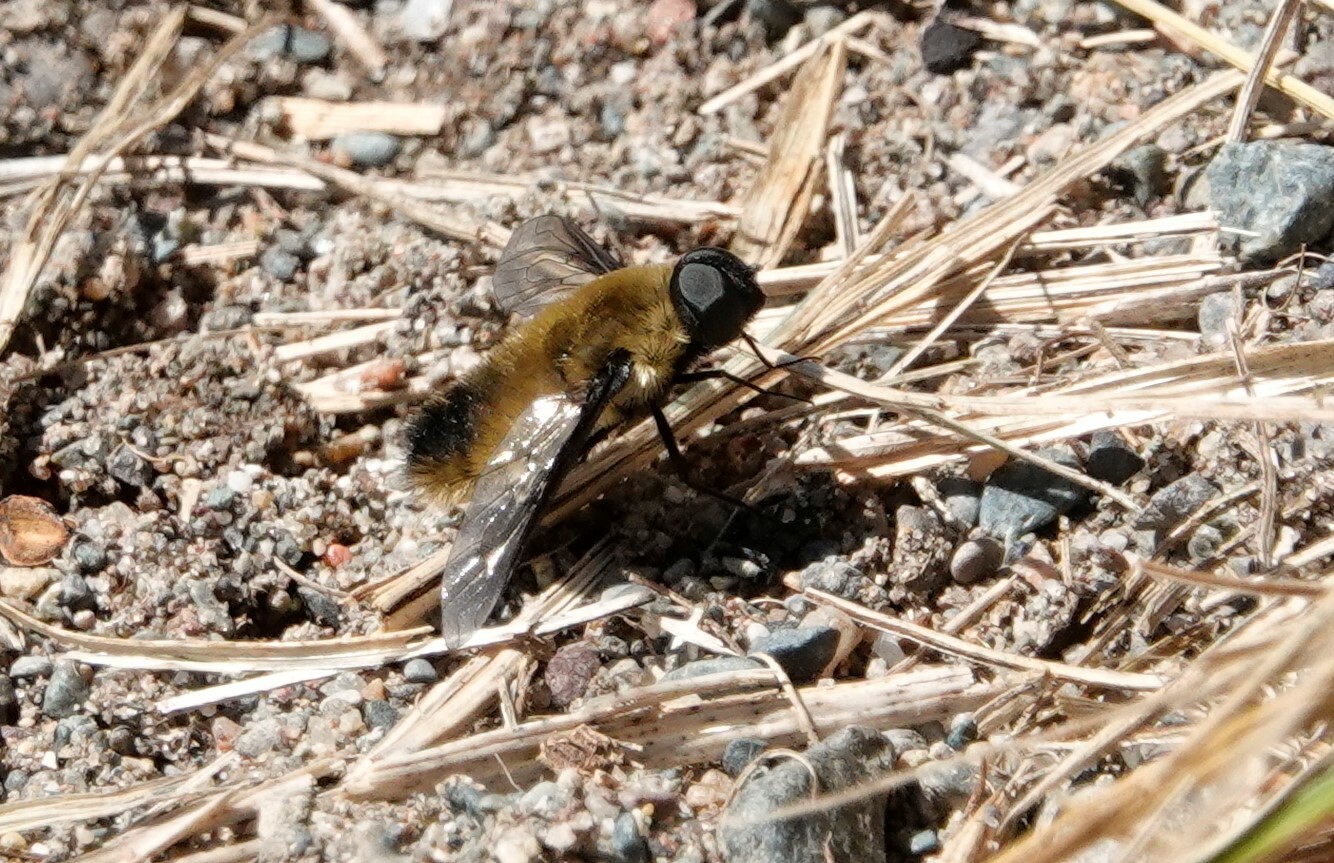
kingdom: Animalia
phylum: Arthropoda
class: Insecta
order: Diptera
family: Bombyliidae
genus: Villa
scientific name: Villa fulviana
